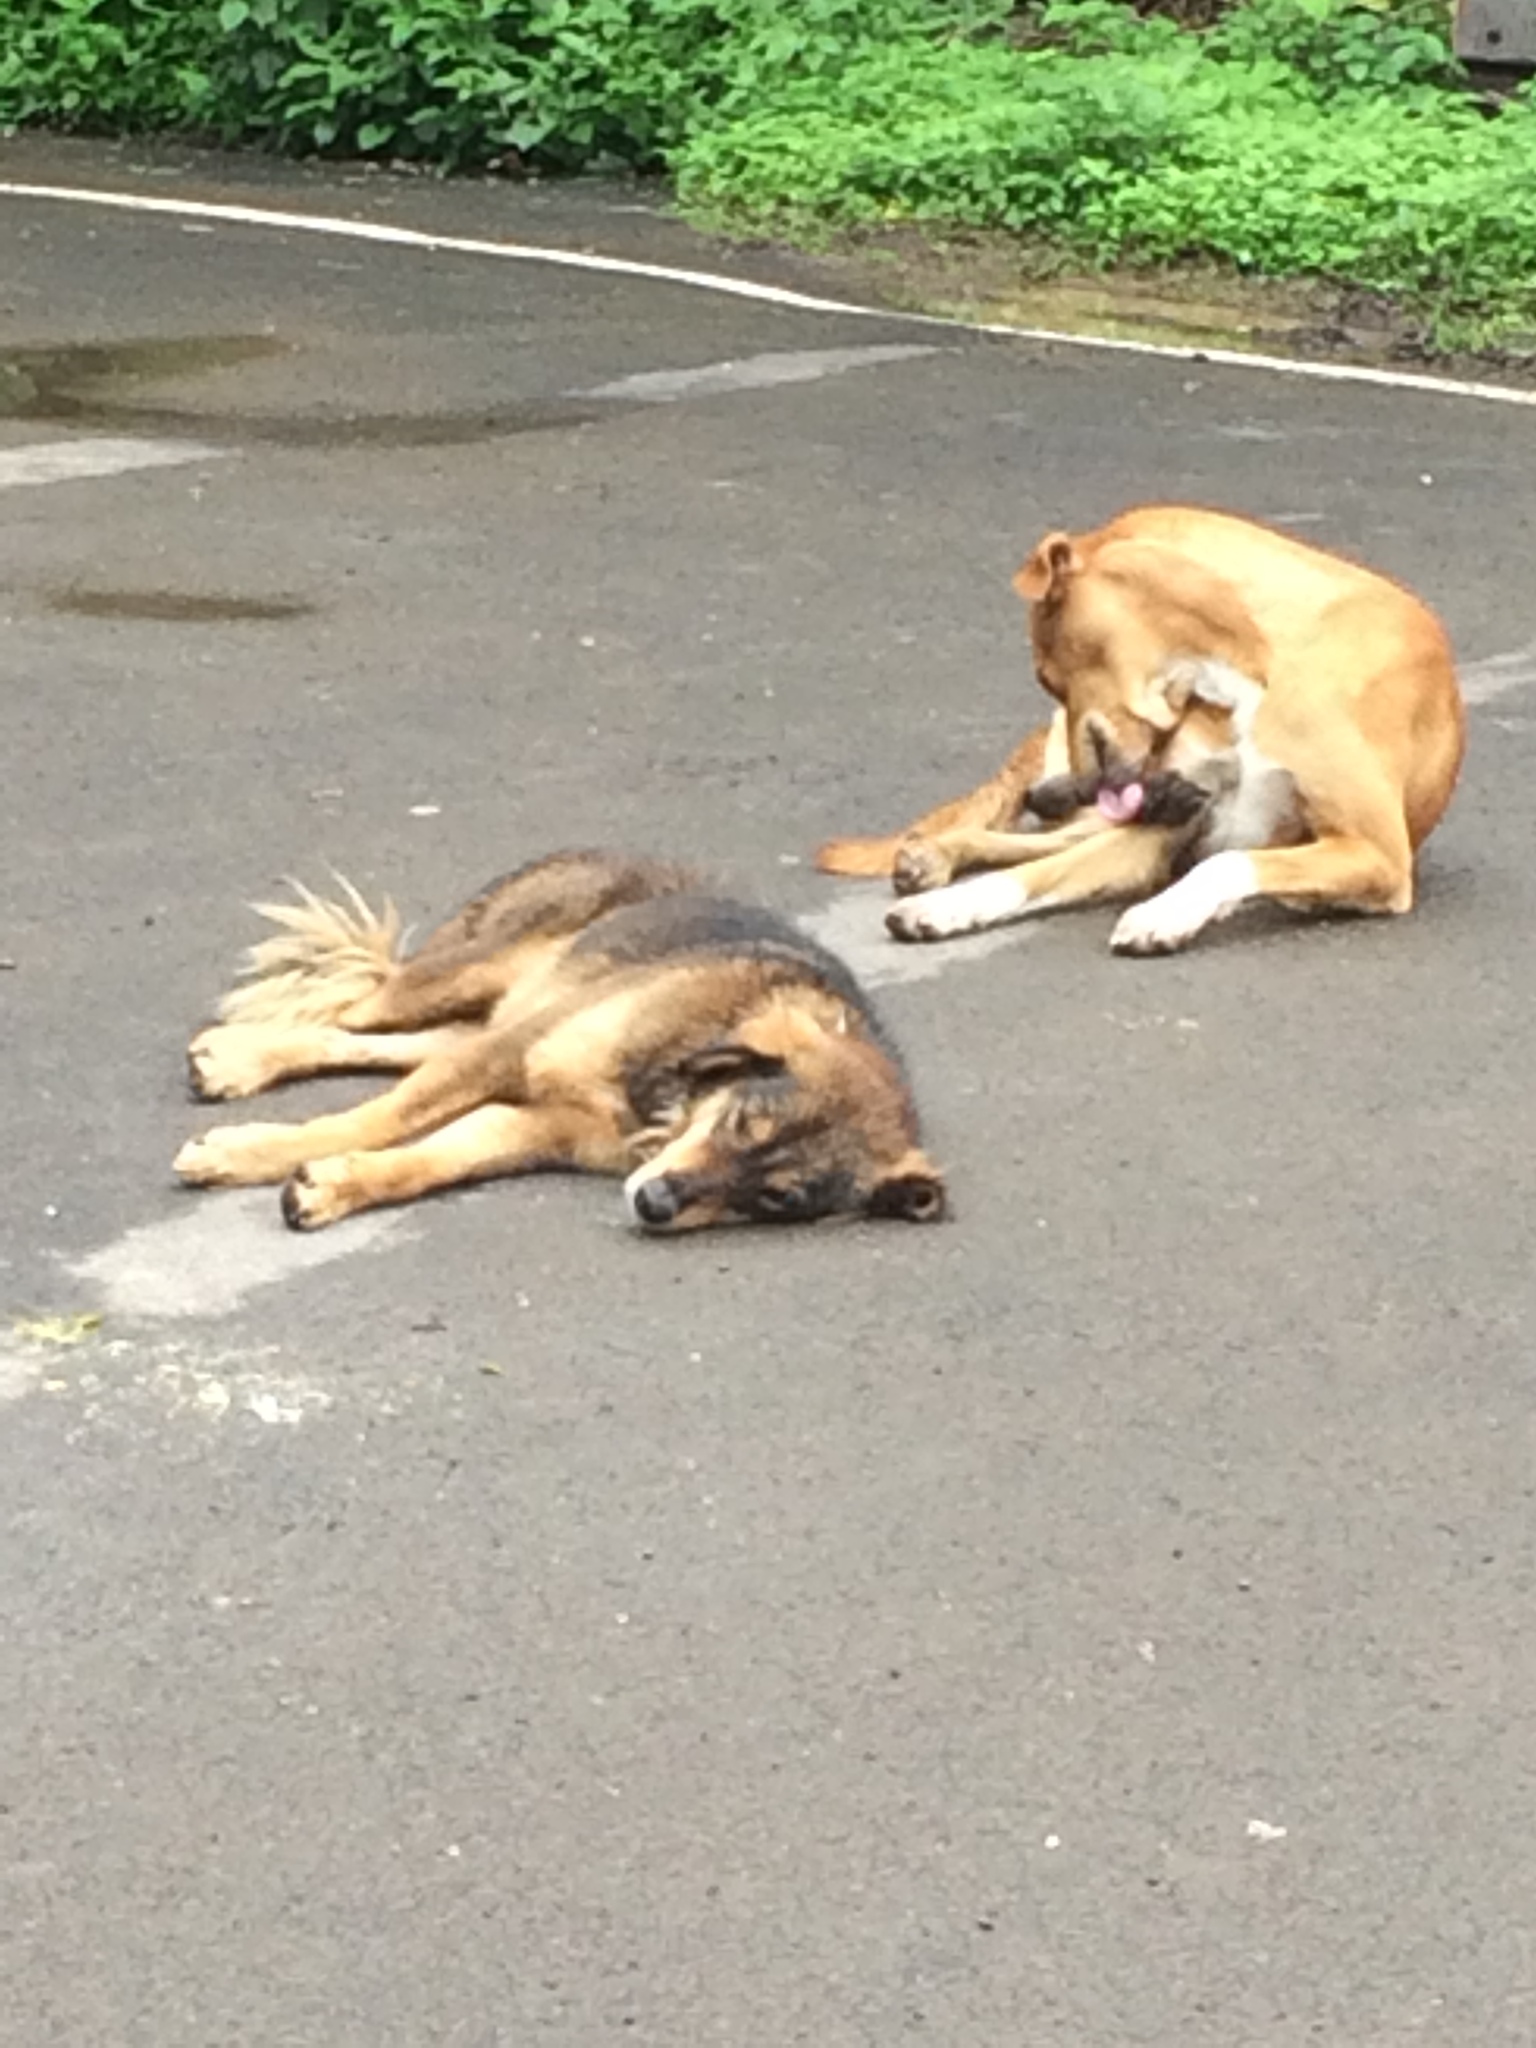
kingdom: Animalia
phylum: Chordata
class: Mammalia
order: Carnivora
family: Canidae
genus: Canis
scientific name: Canis lupus
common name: Gray wolf
